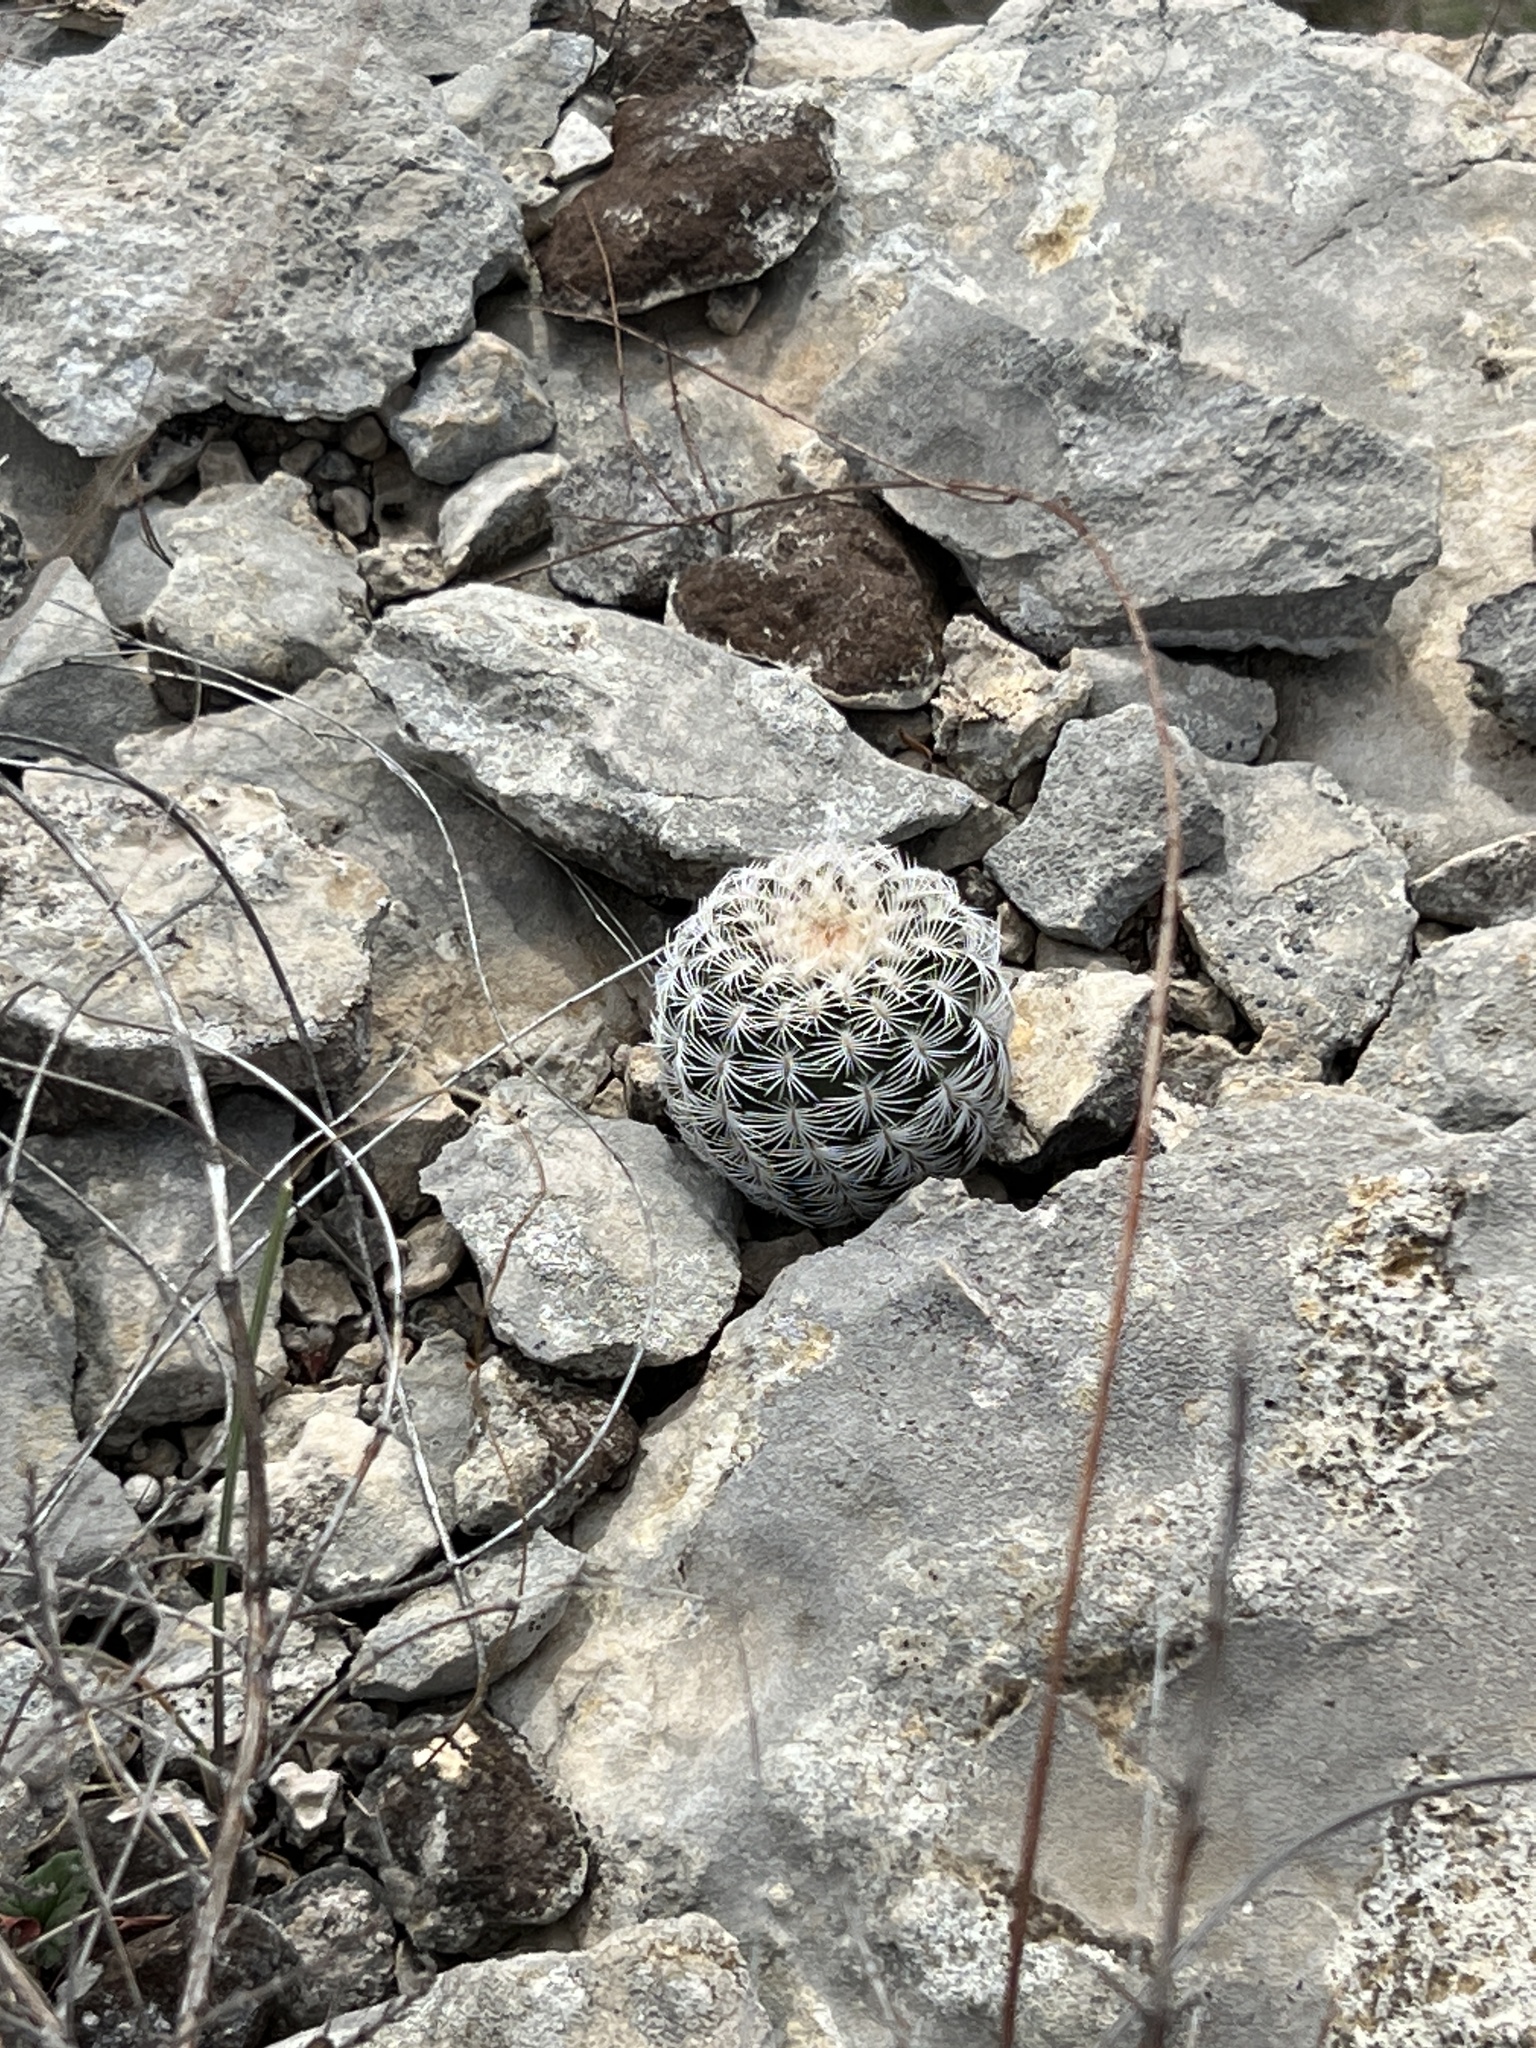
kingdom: Plantae
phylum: Tracheophyta
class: Magnoliopsida
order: Caryophyllales
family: Cactaceae
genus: Echinocereus
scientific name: Echinocereus reichenbachii
